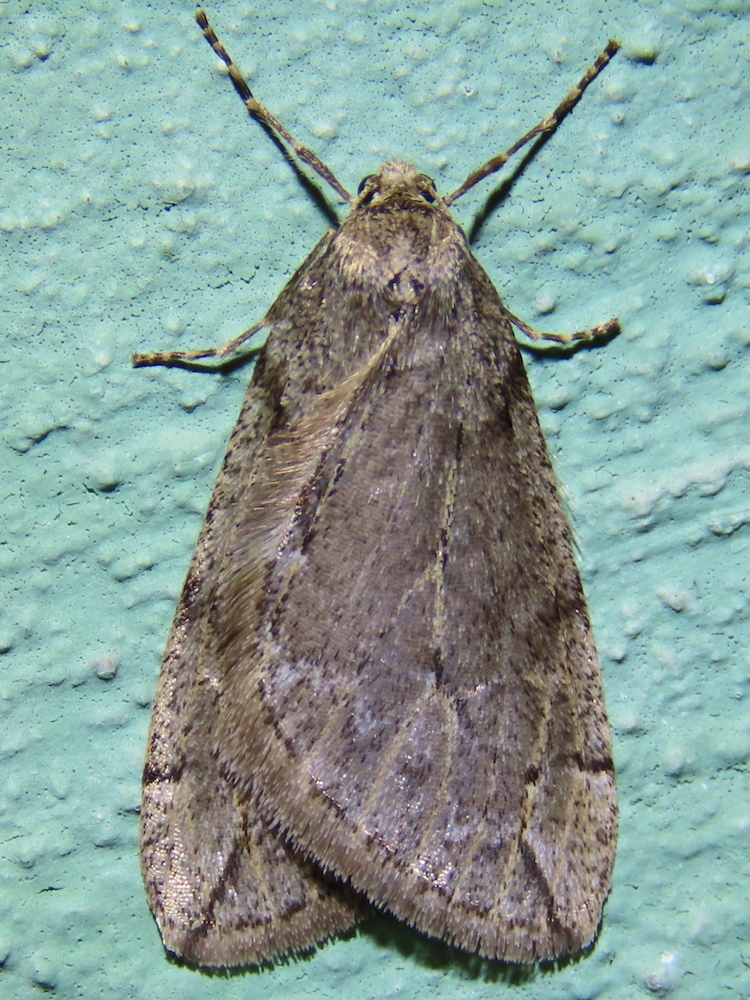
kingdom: Animalia
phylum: Arthropoda
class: Insecta
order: Lepidoptera
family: Geometridae
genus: Paleacrita
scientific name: Paleacrita vernata
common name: Spring cankerworm
